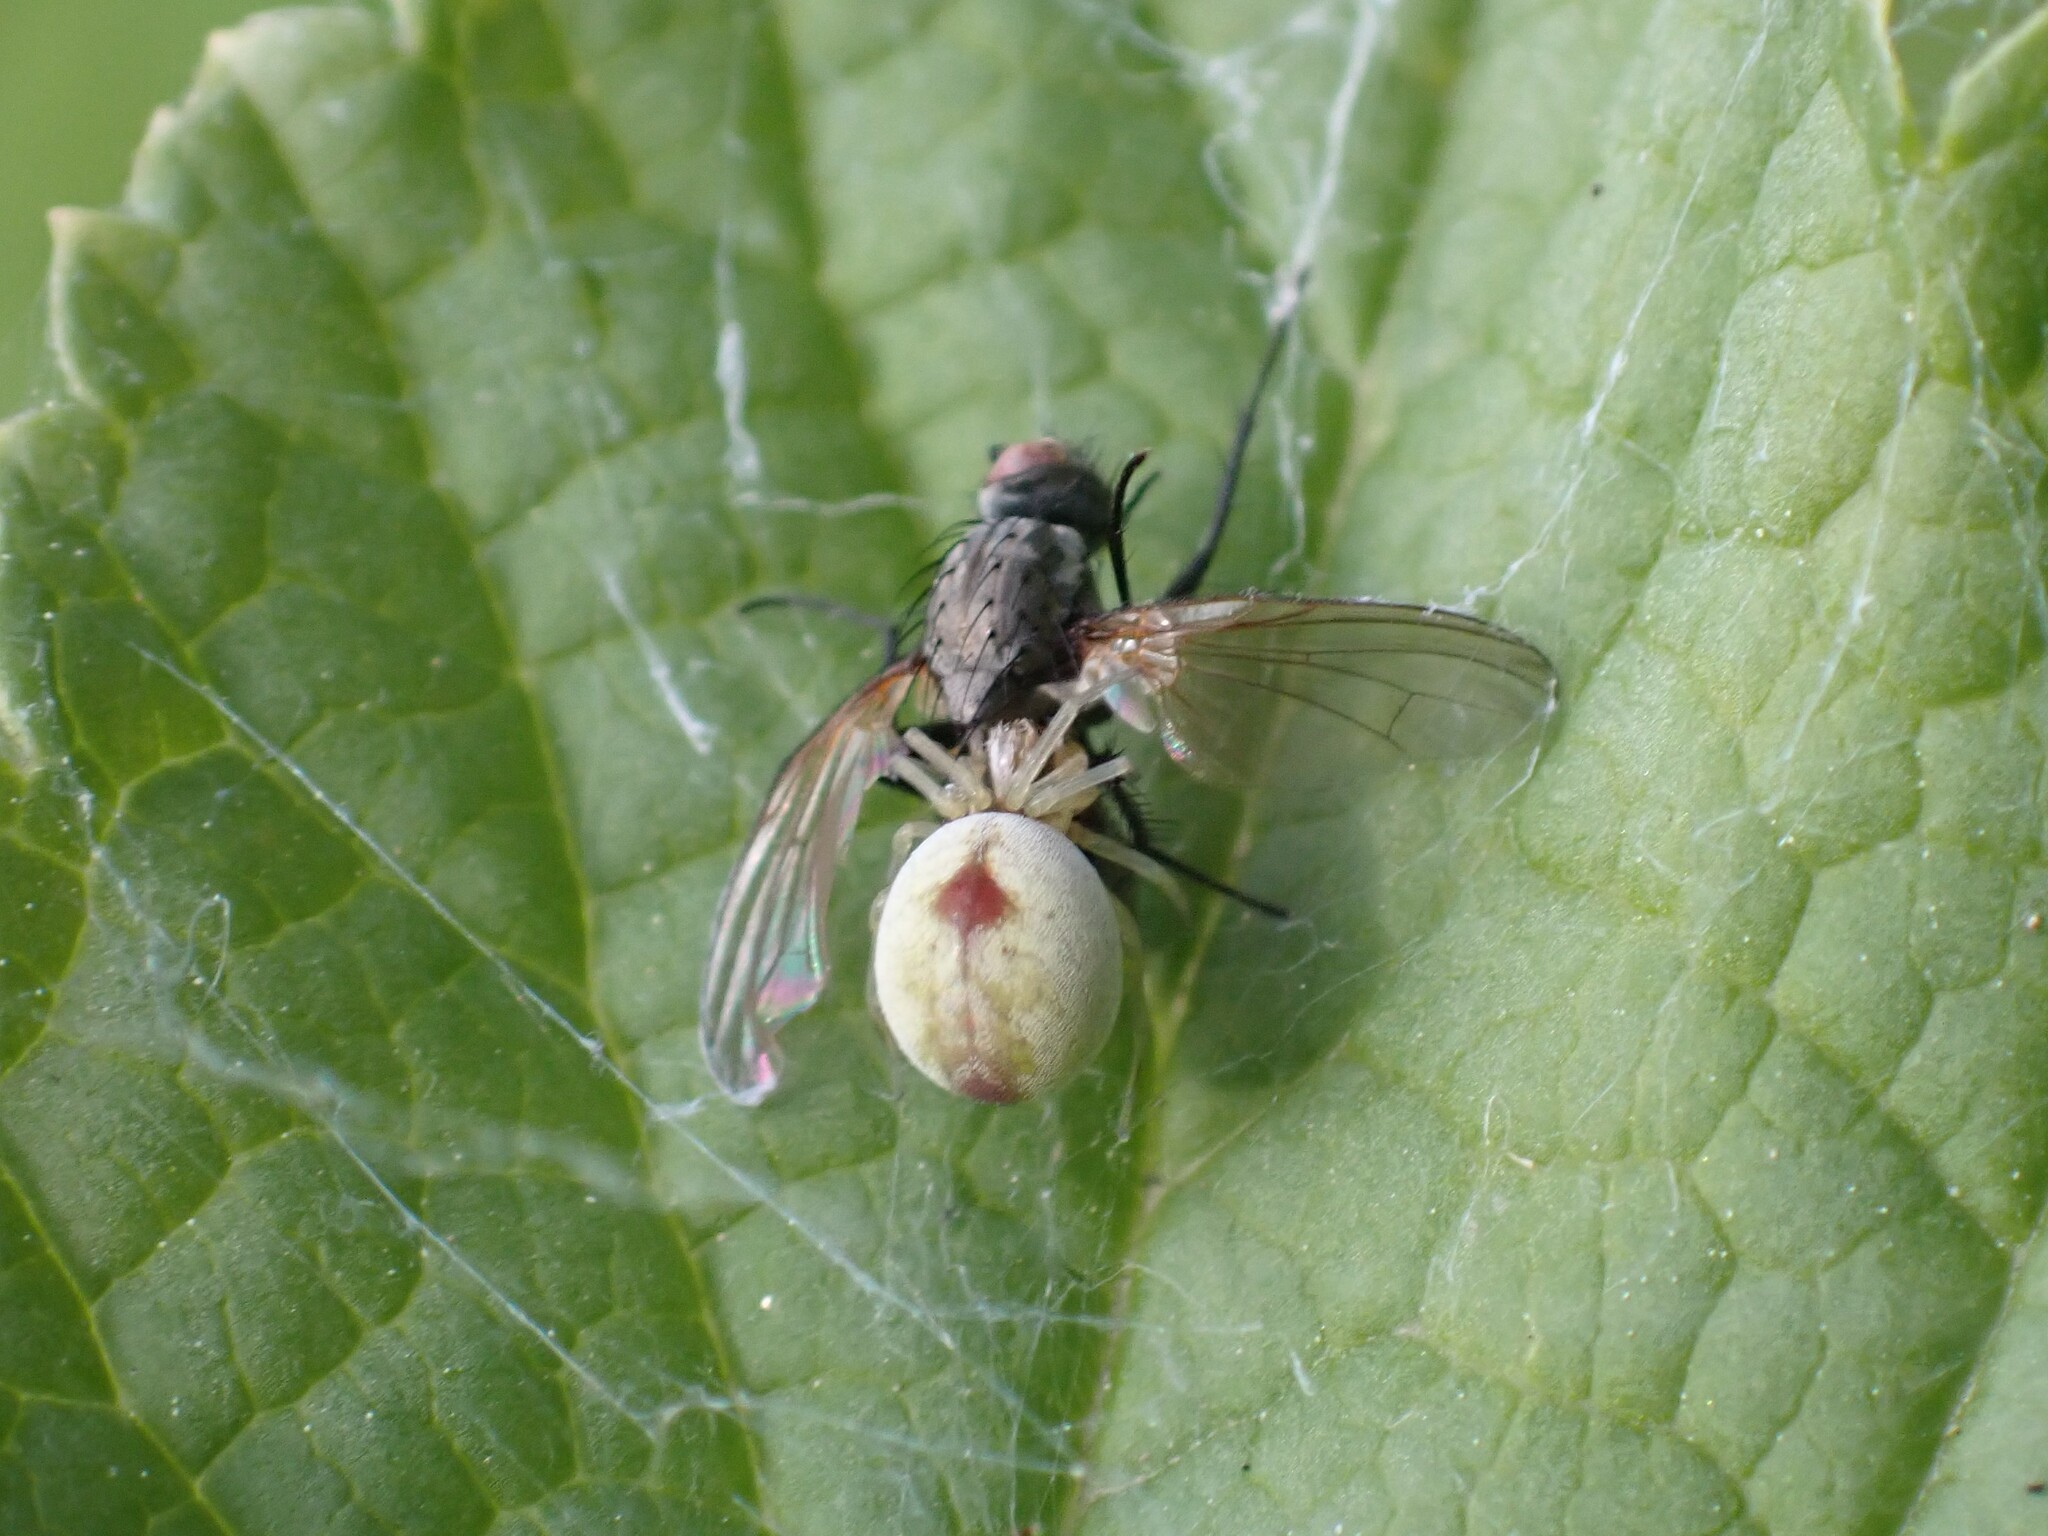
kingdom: Animalia
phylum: Arthropoda
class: Arachnida
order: Araneae
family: Dictynidae
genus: Nigma
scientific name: Nigma puella
